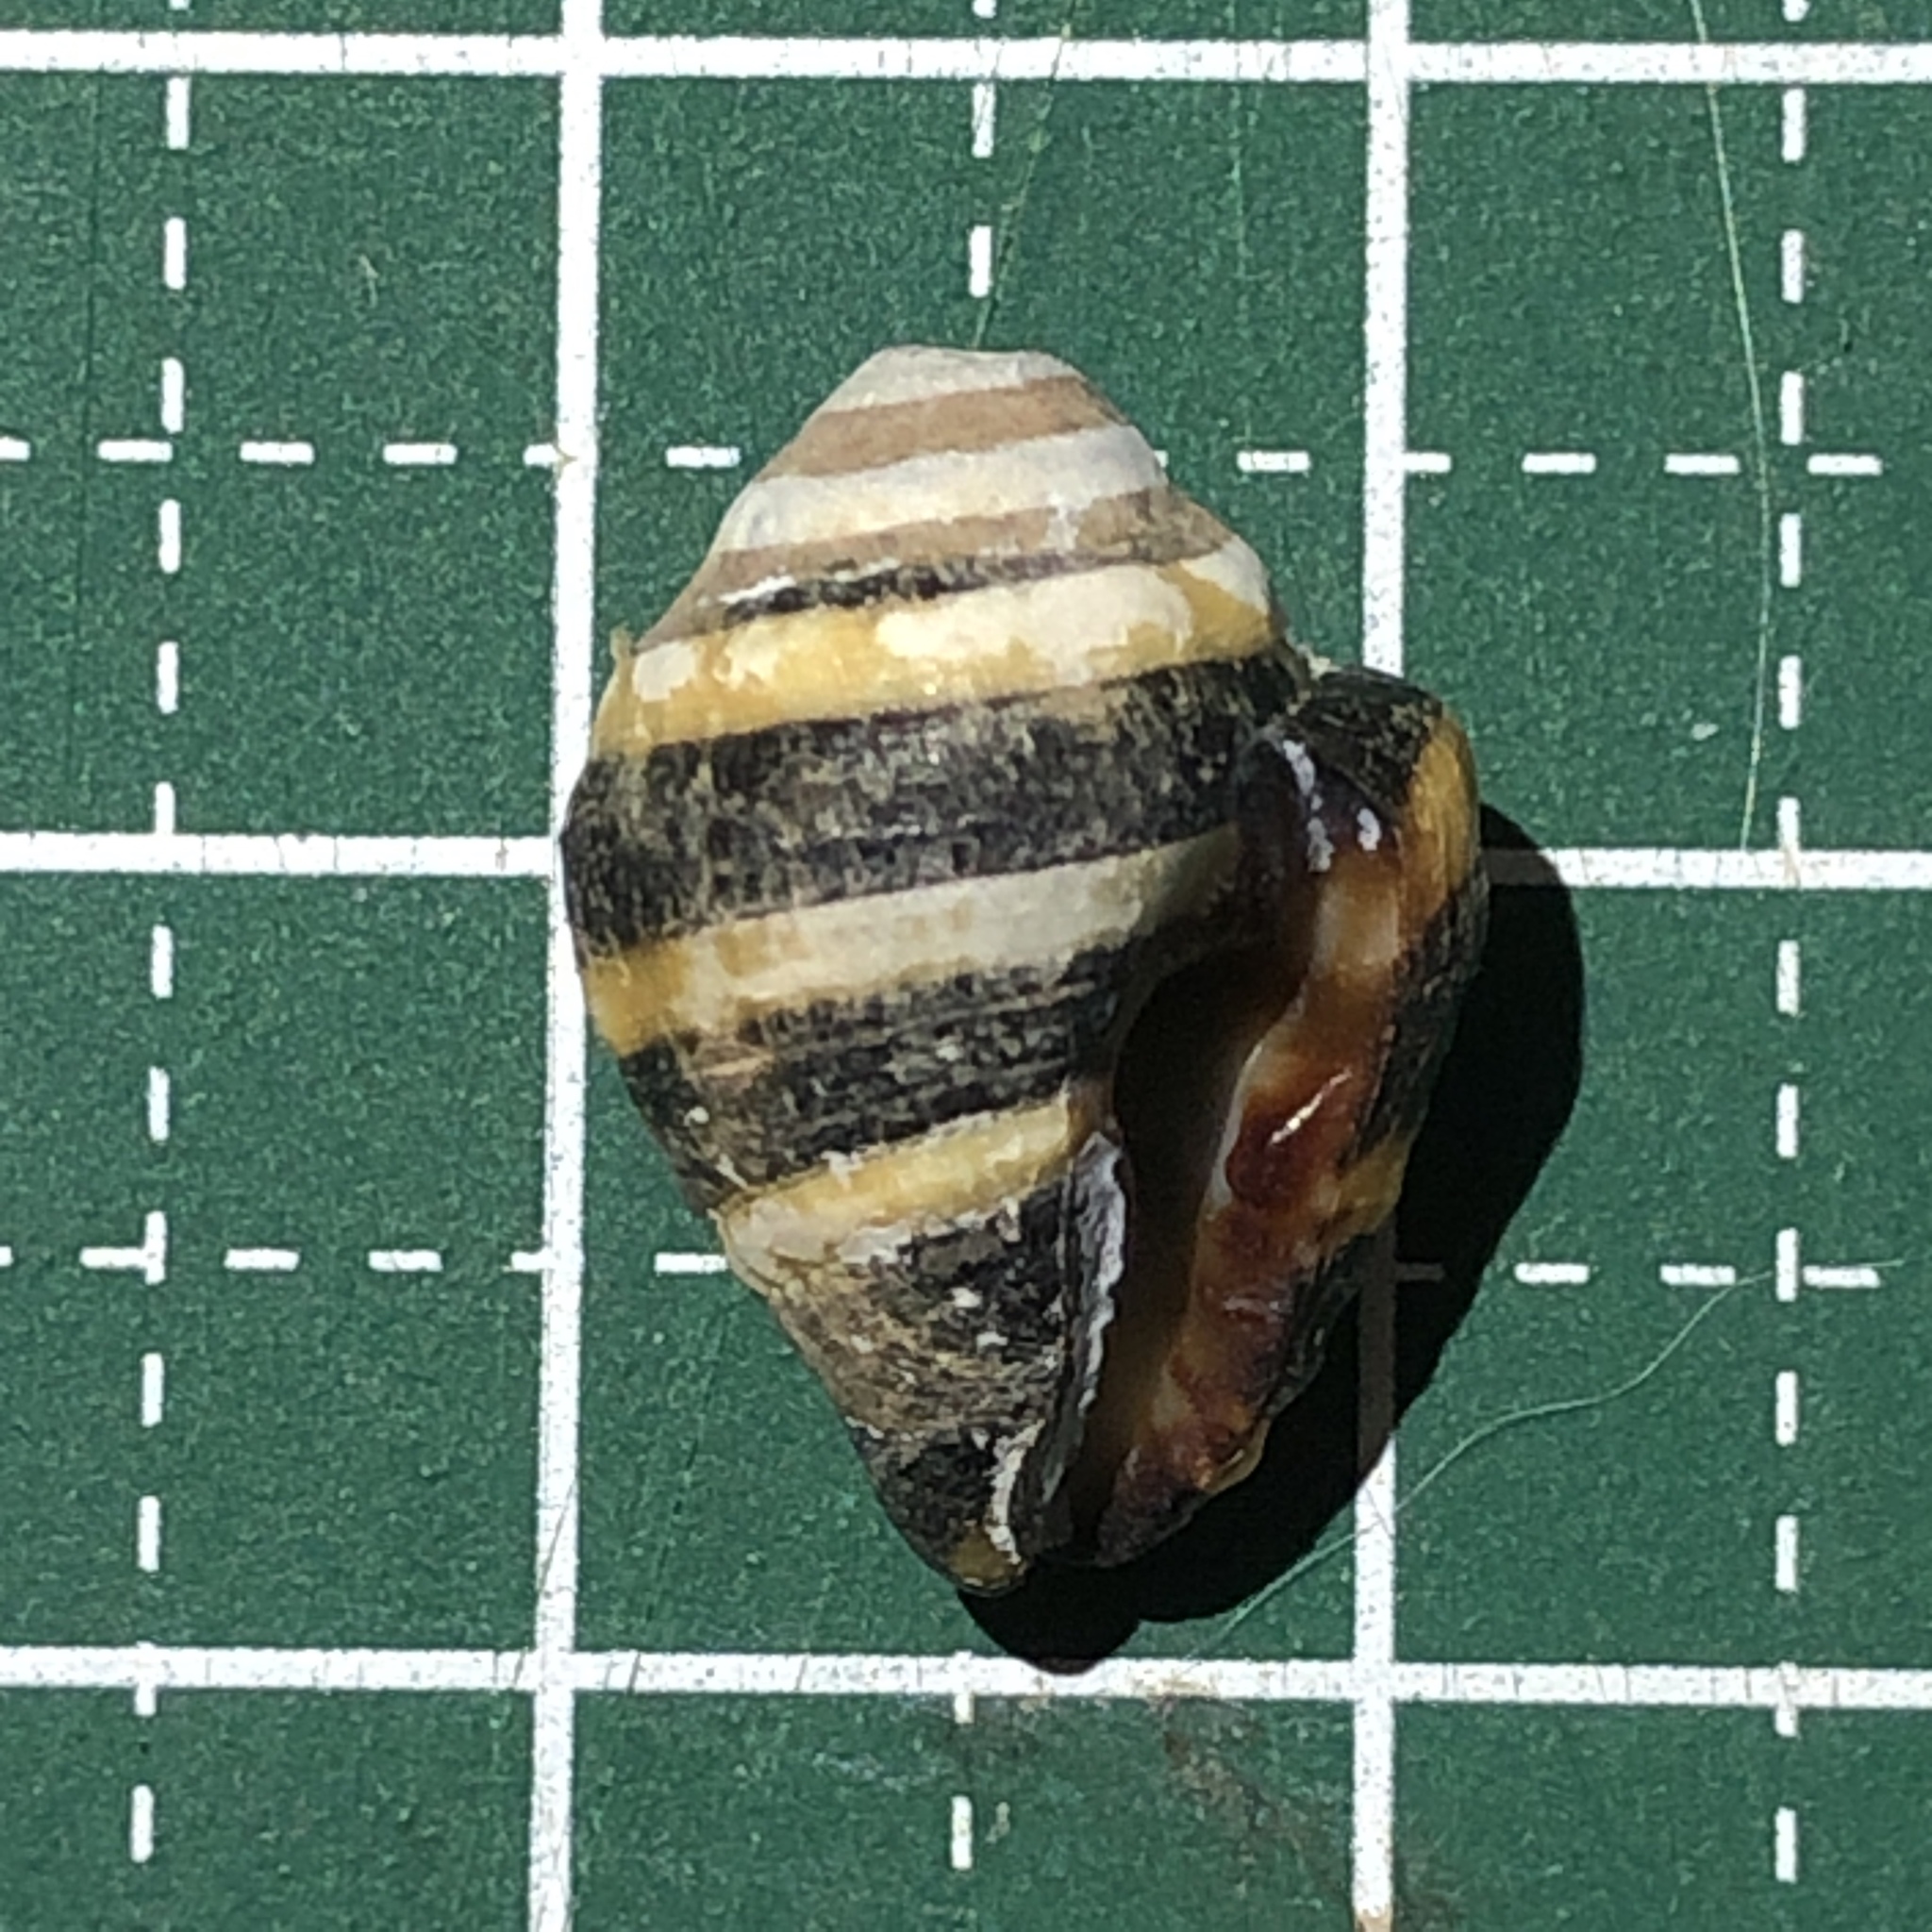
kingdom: Animalia
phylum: Mollusca
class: Gastropoda
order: Neogastropoda
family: Pisaniidae
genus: Engina
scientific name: Engina mendicaria
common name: Bumble bee snail
